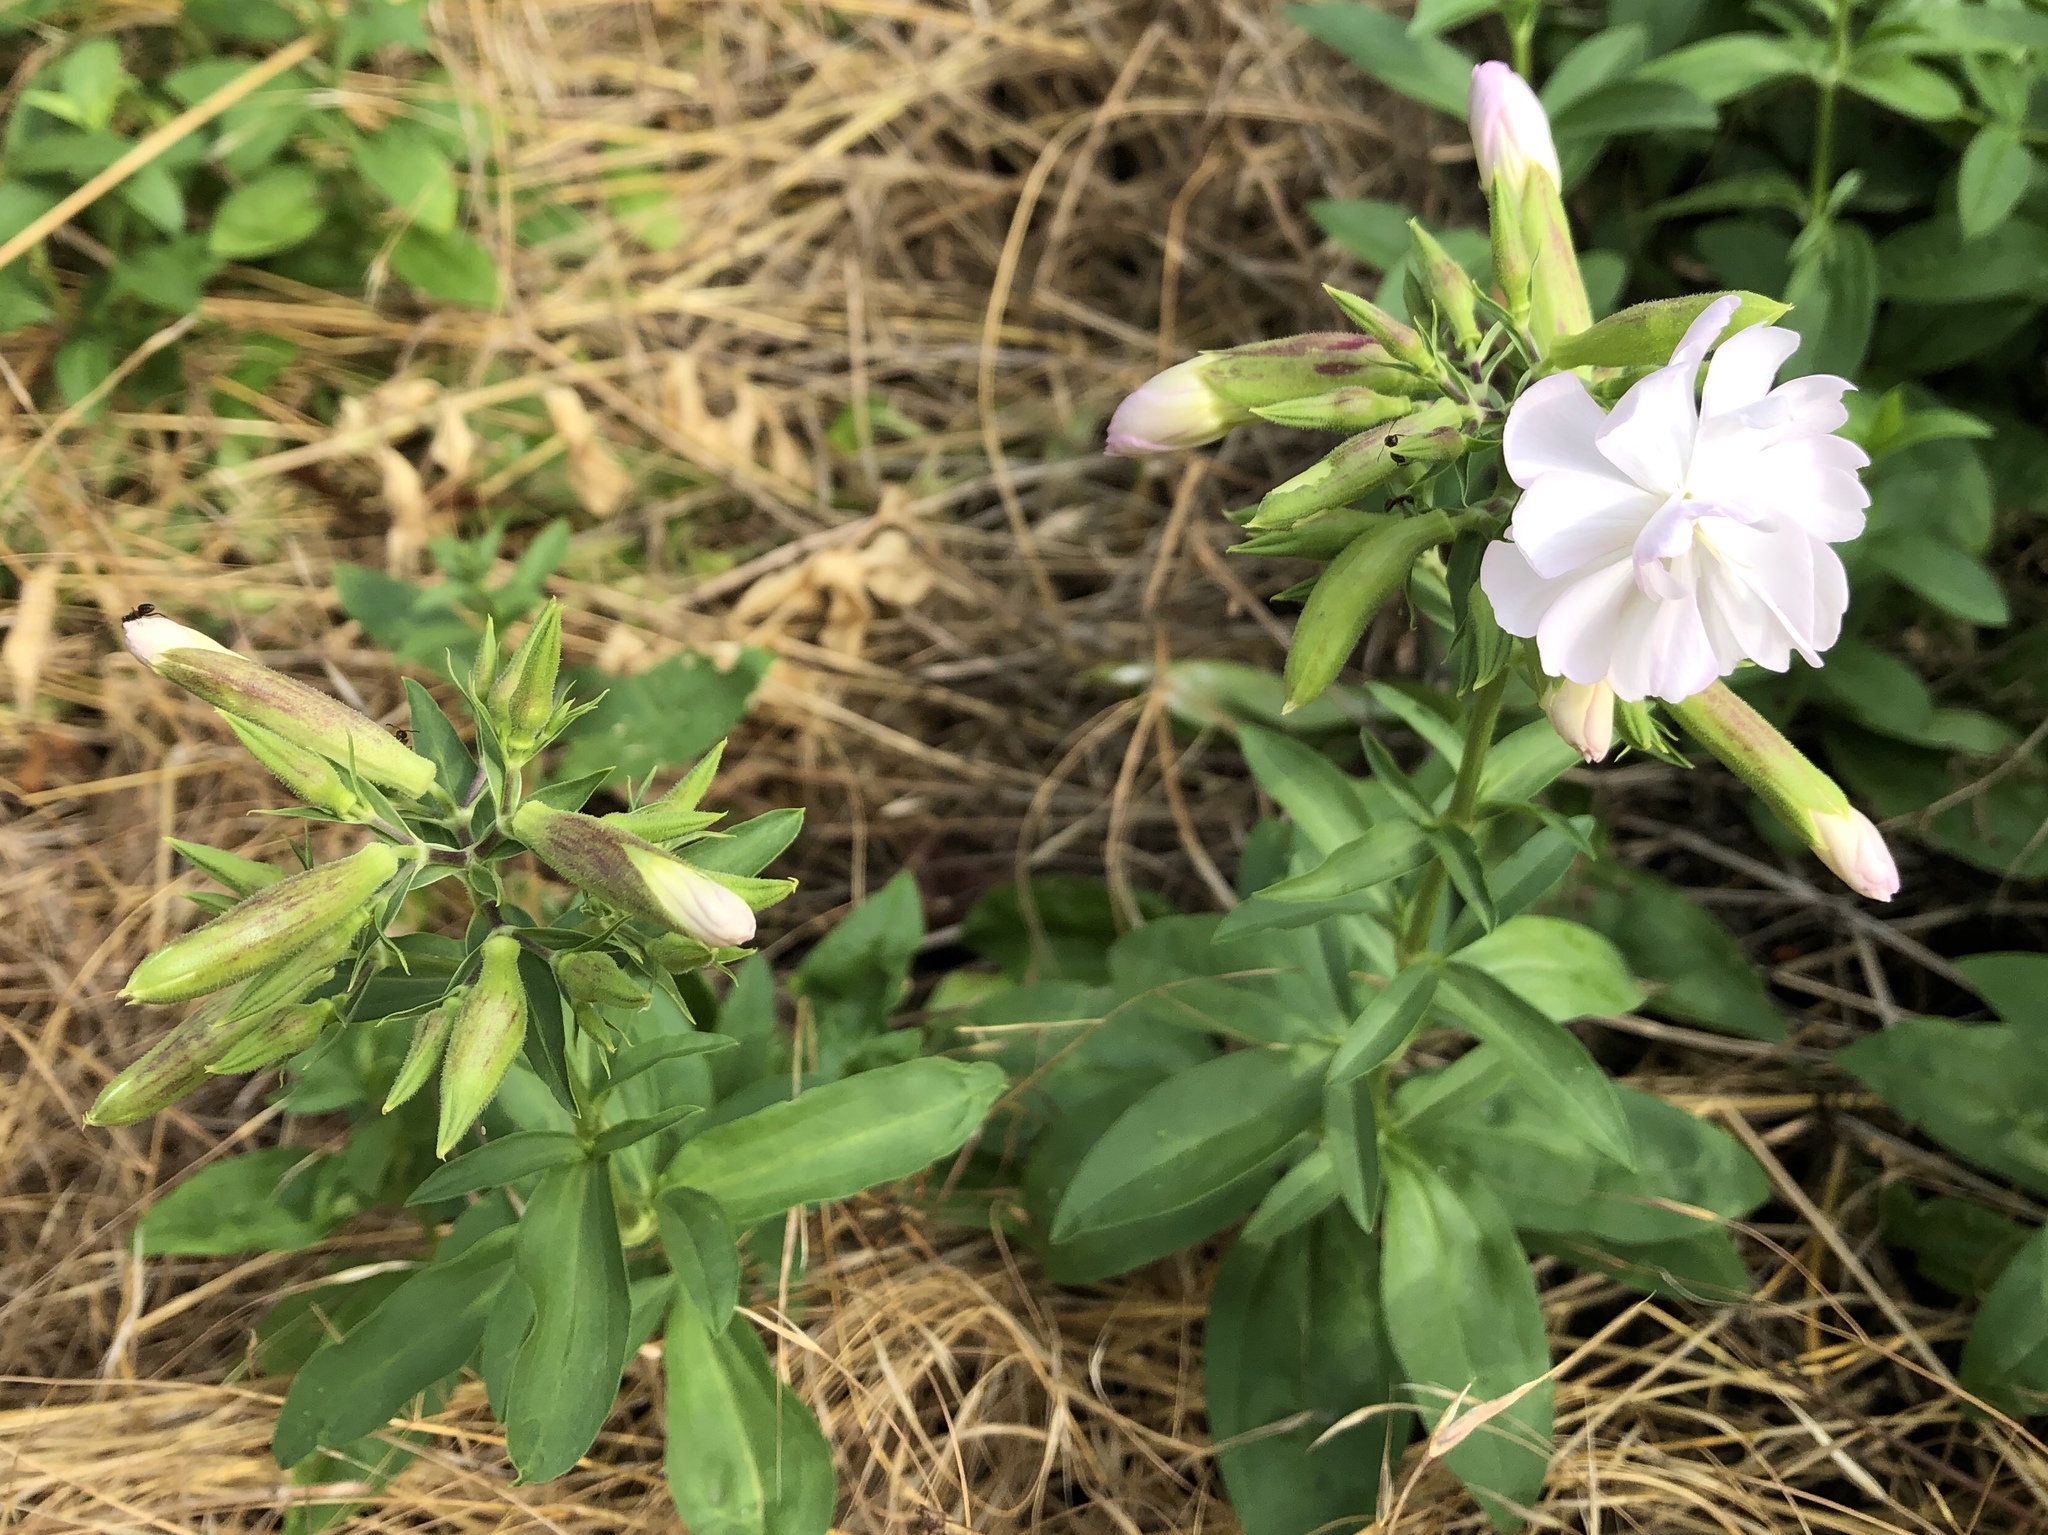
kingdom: Plantae
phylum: Tracheophyta
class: Magnoliopsida
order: Caryophyllales
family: Caryophyllaceae
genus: Saponaria
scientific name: Saponaria officinalis
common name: Soapwort
